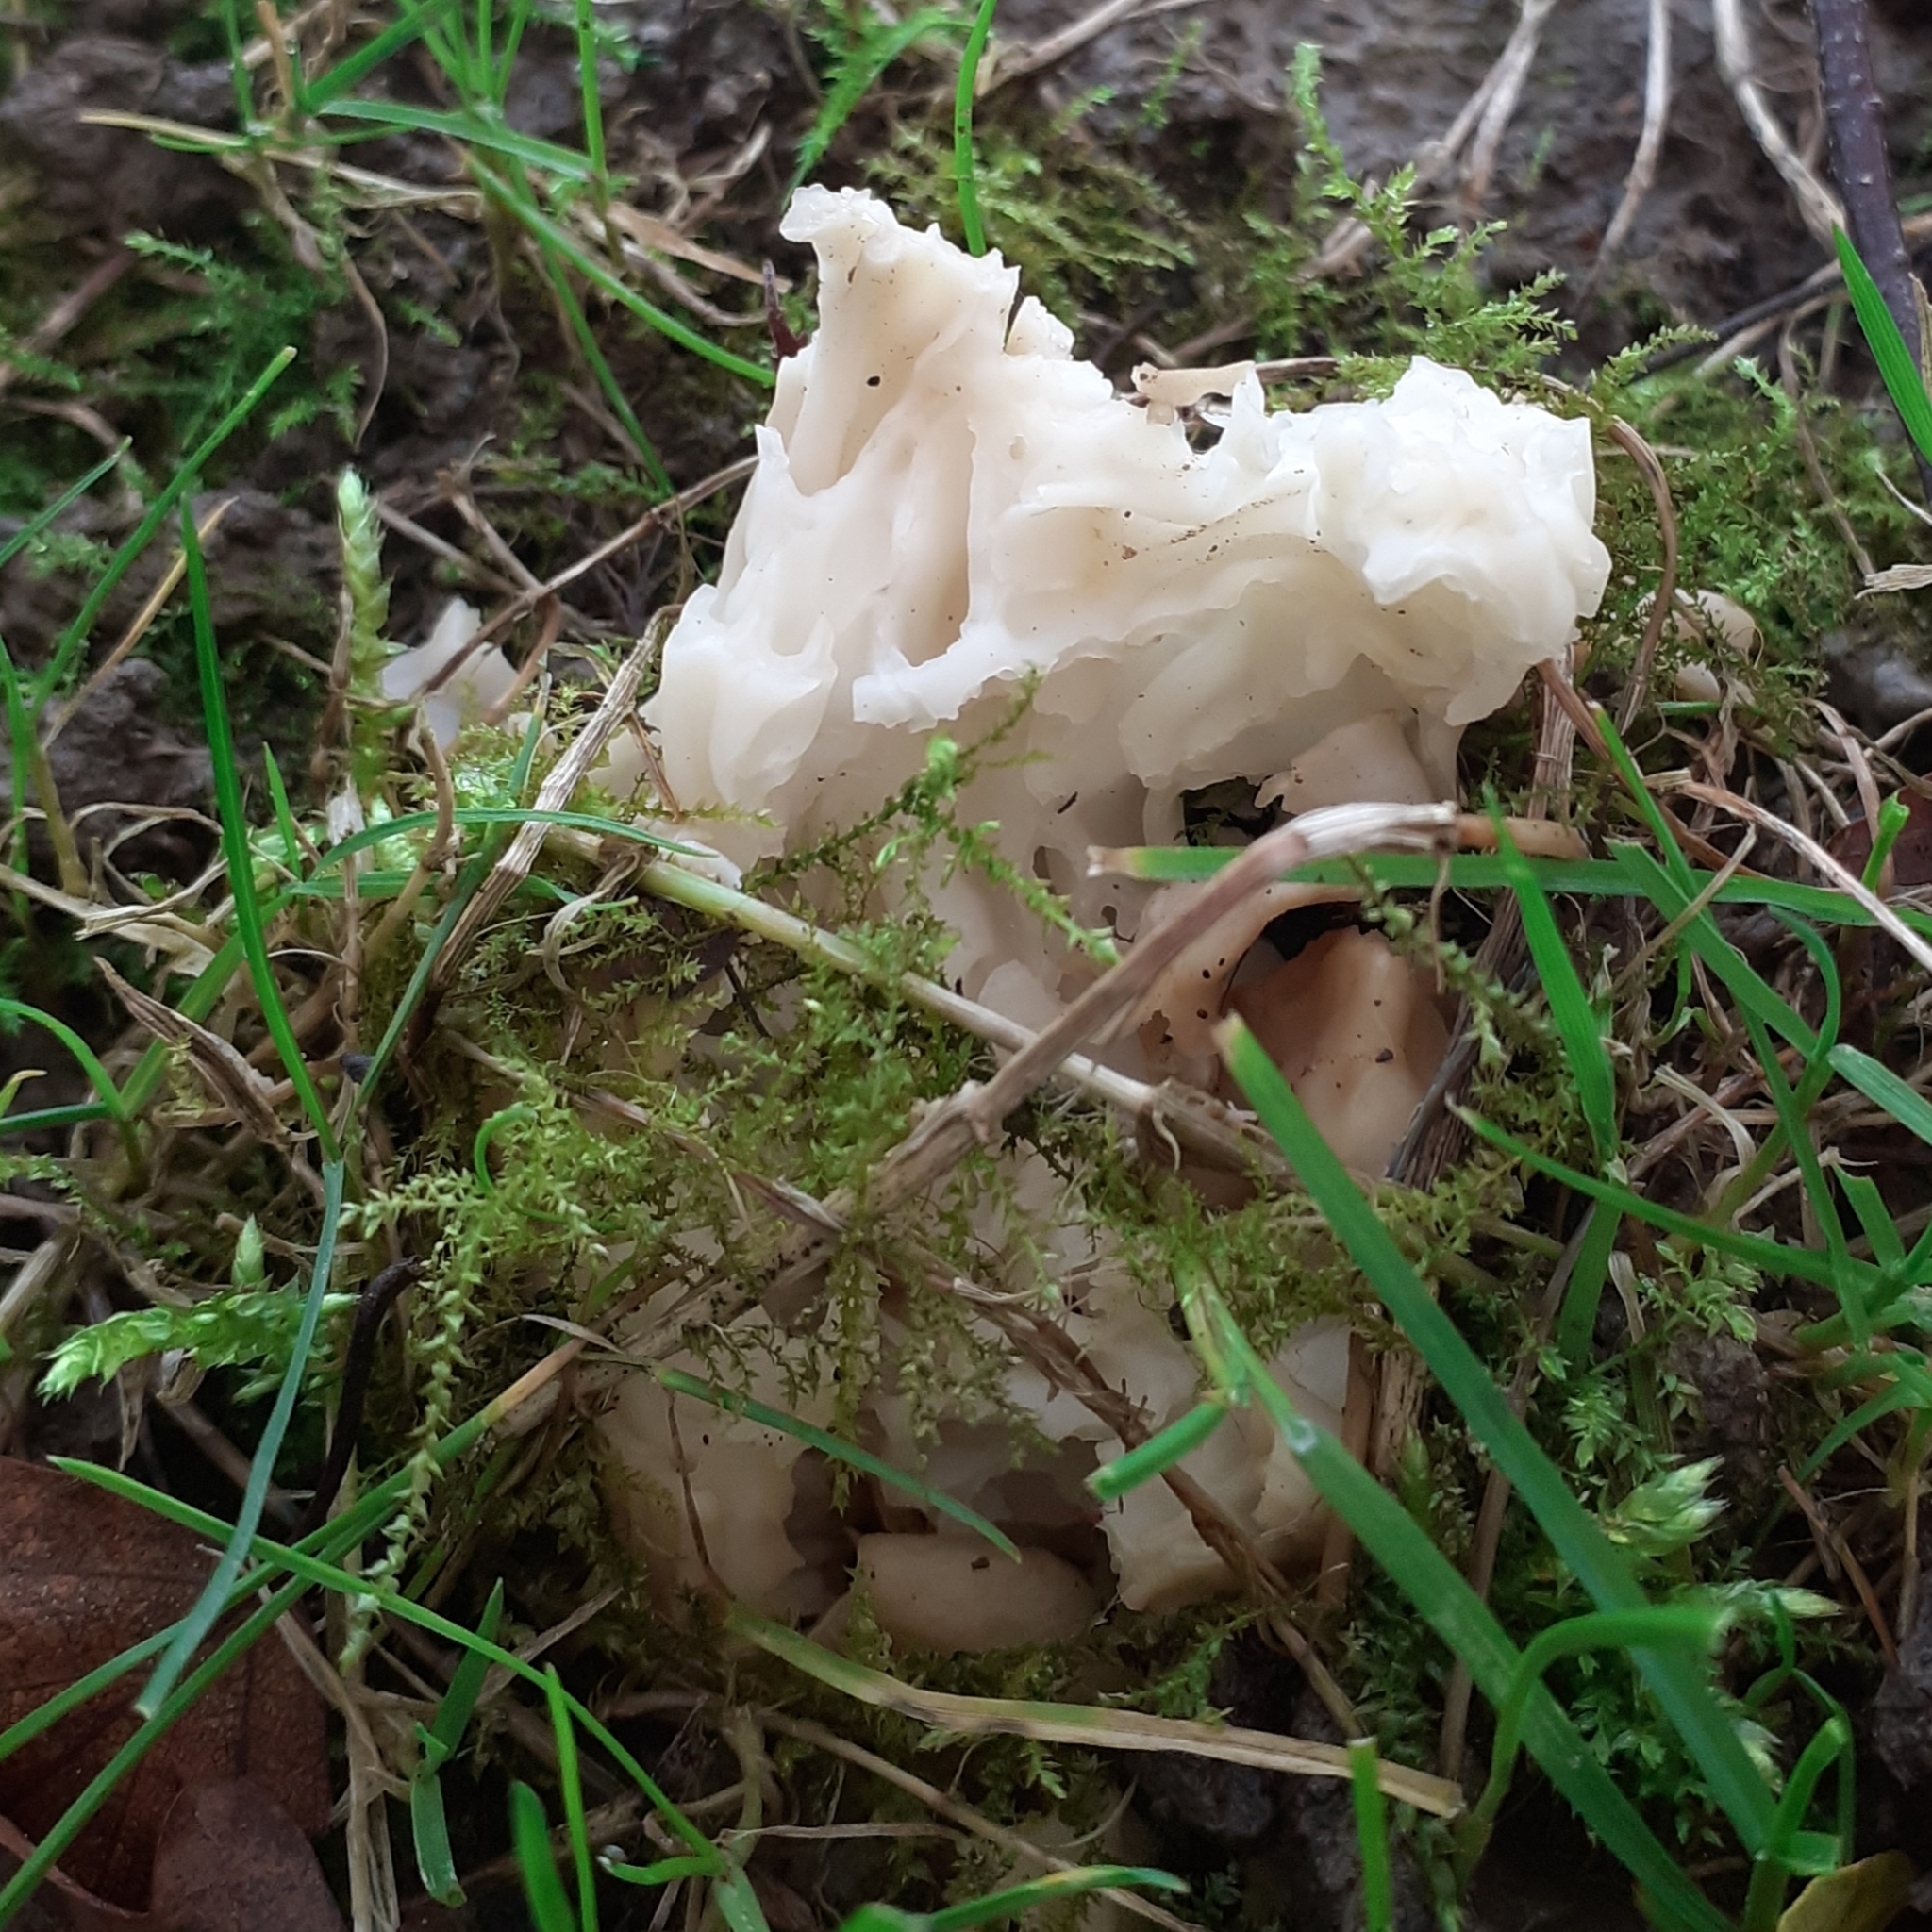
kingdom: Fungi
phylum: Ascomycota
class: Pezizomycetes
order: Pezizales
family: Helvellaceae
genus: Helvella
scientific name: Helvella crispa
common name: White saddle
